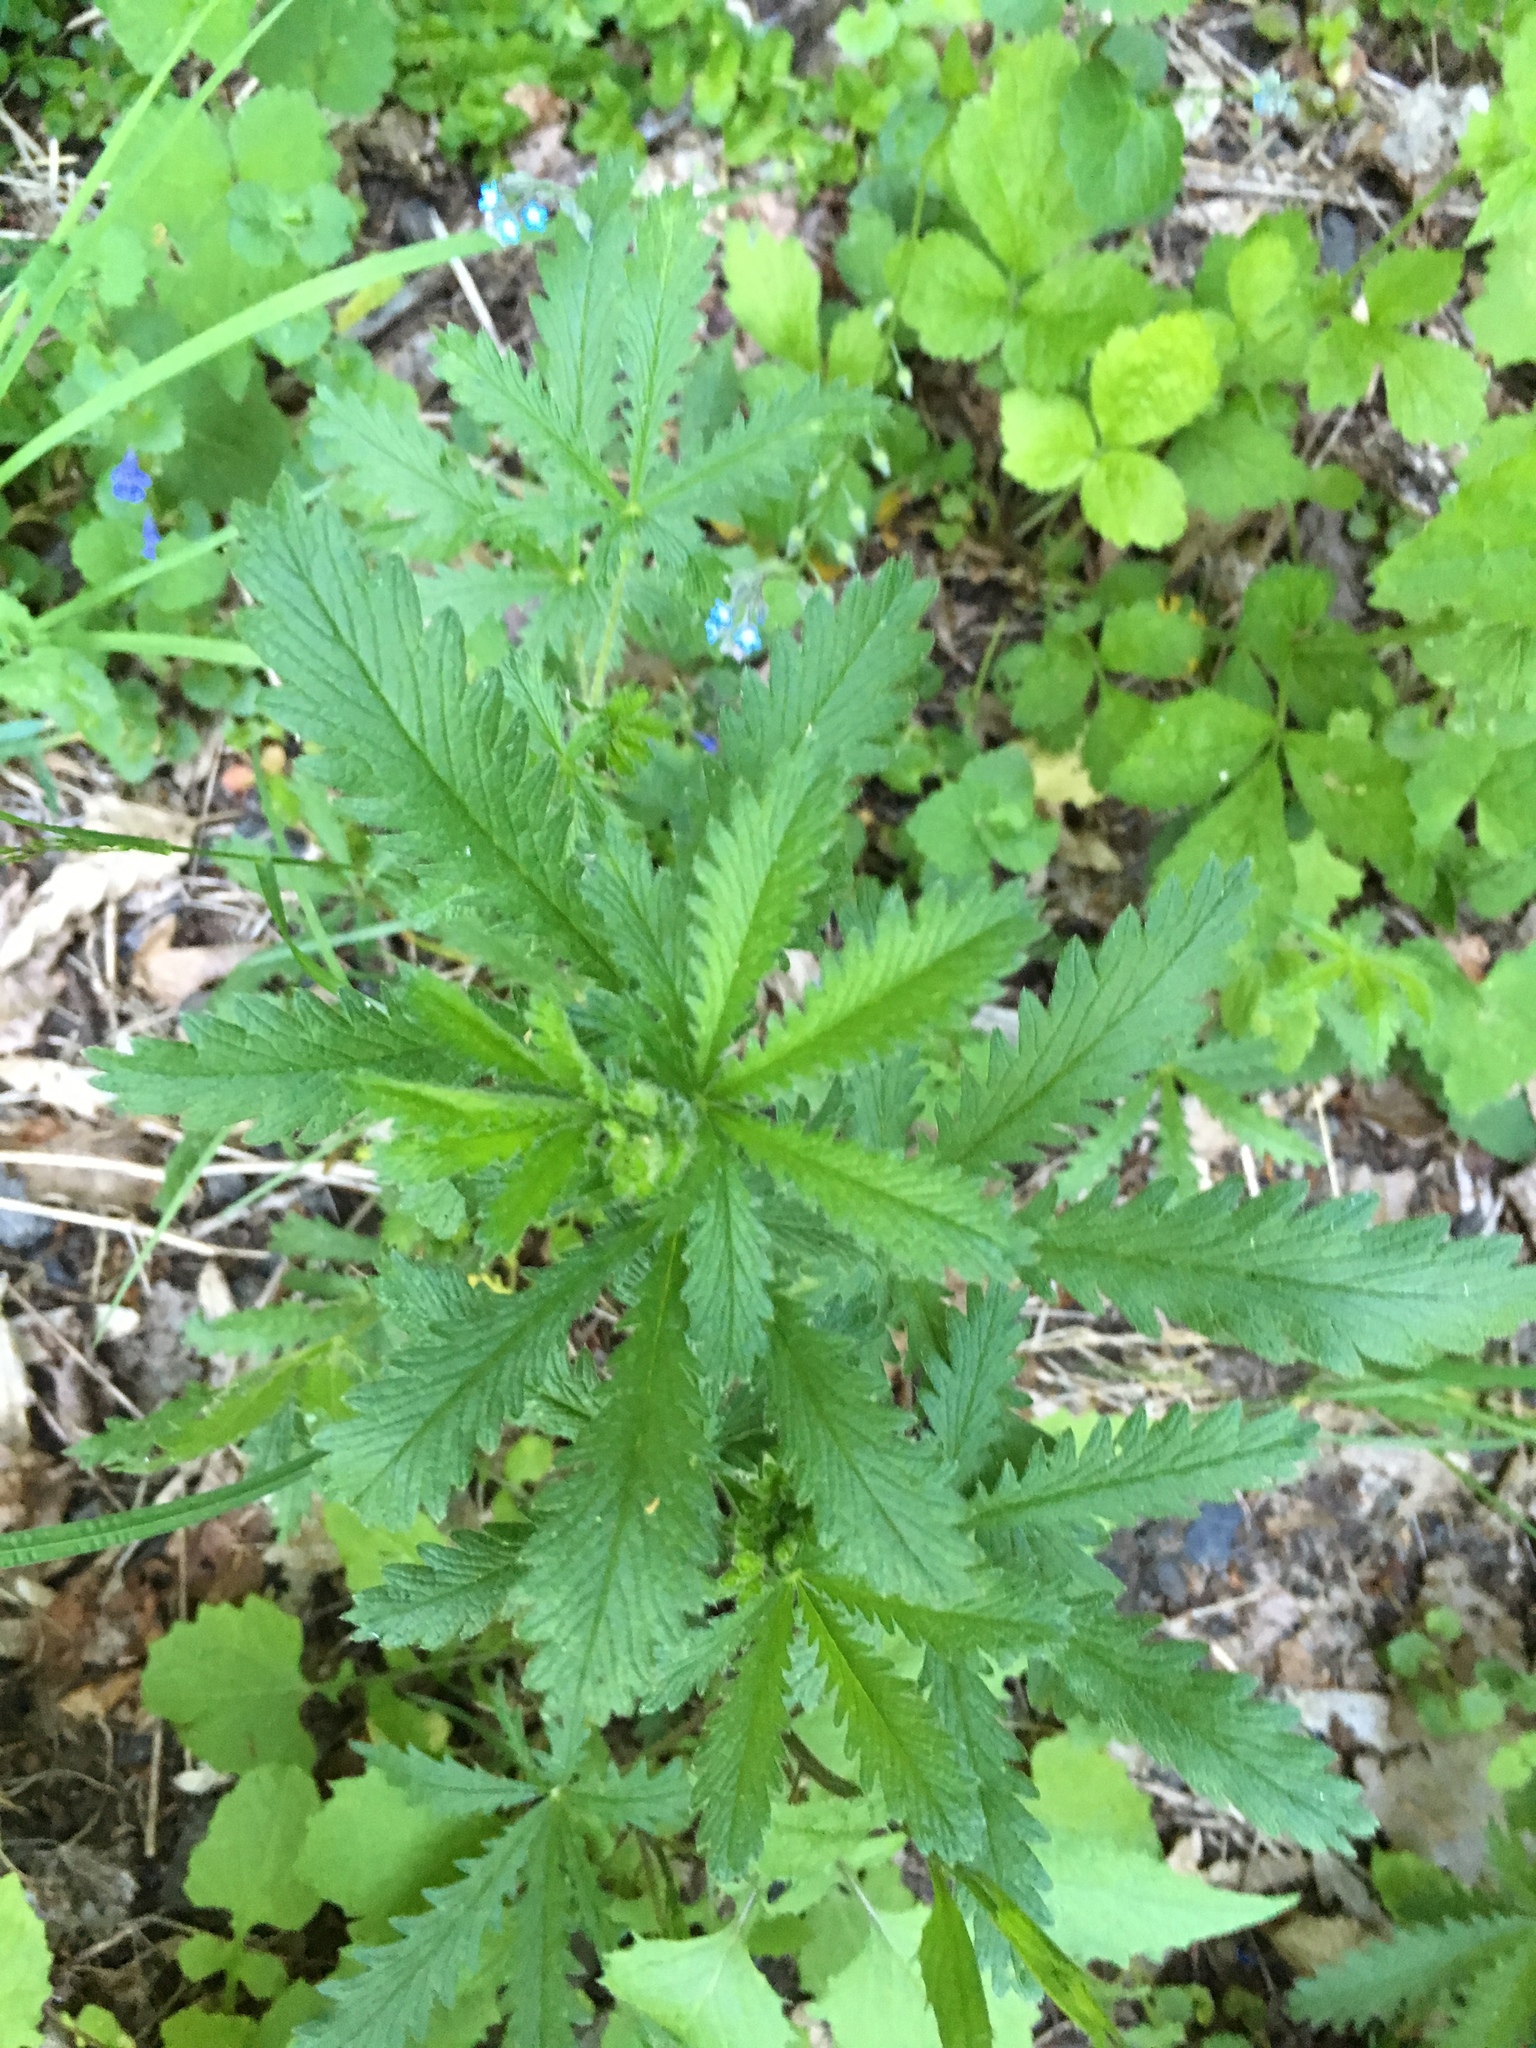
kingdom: Plantae
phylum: Tracheophyta
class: Magnoliopsida
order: Rosales
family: Rosaceae
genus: Potentilla
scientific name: Potentilla recta
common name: Sulphur cinquefoil
